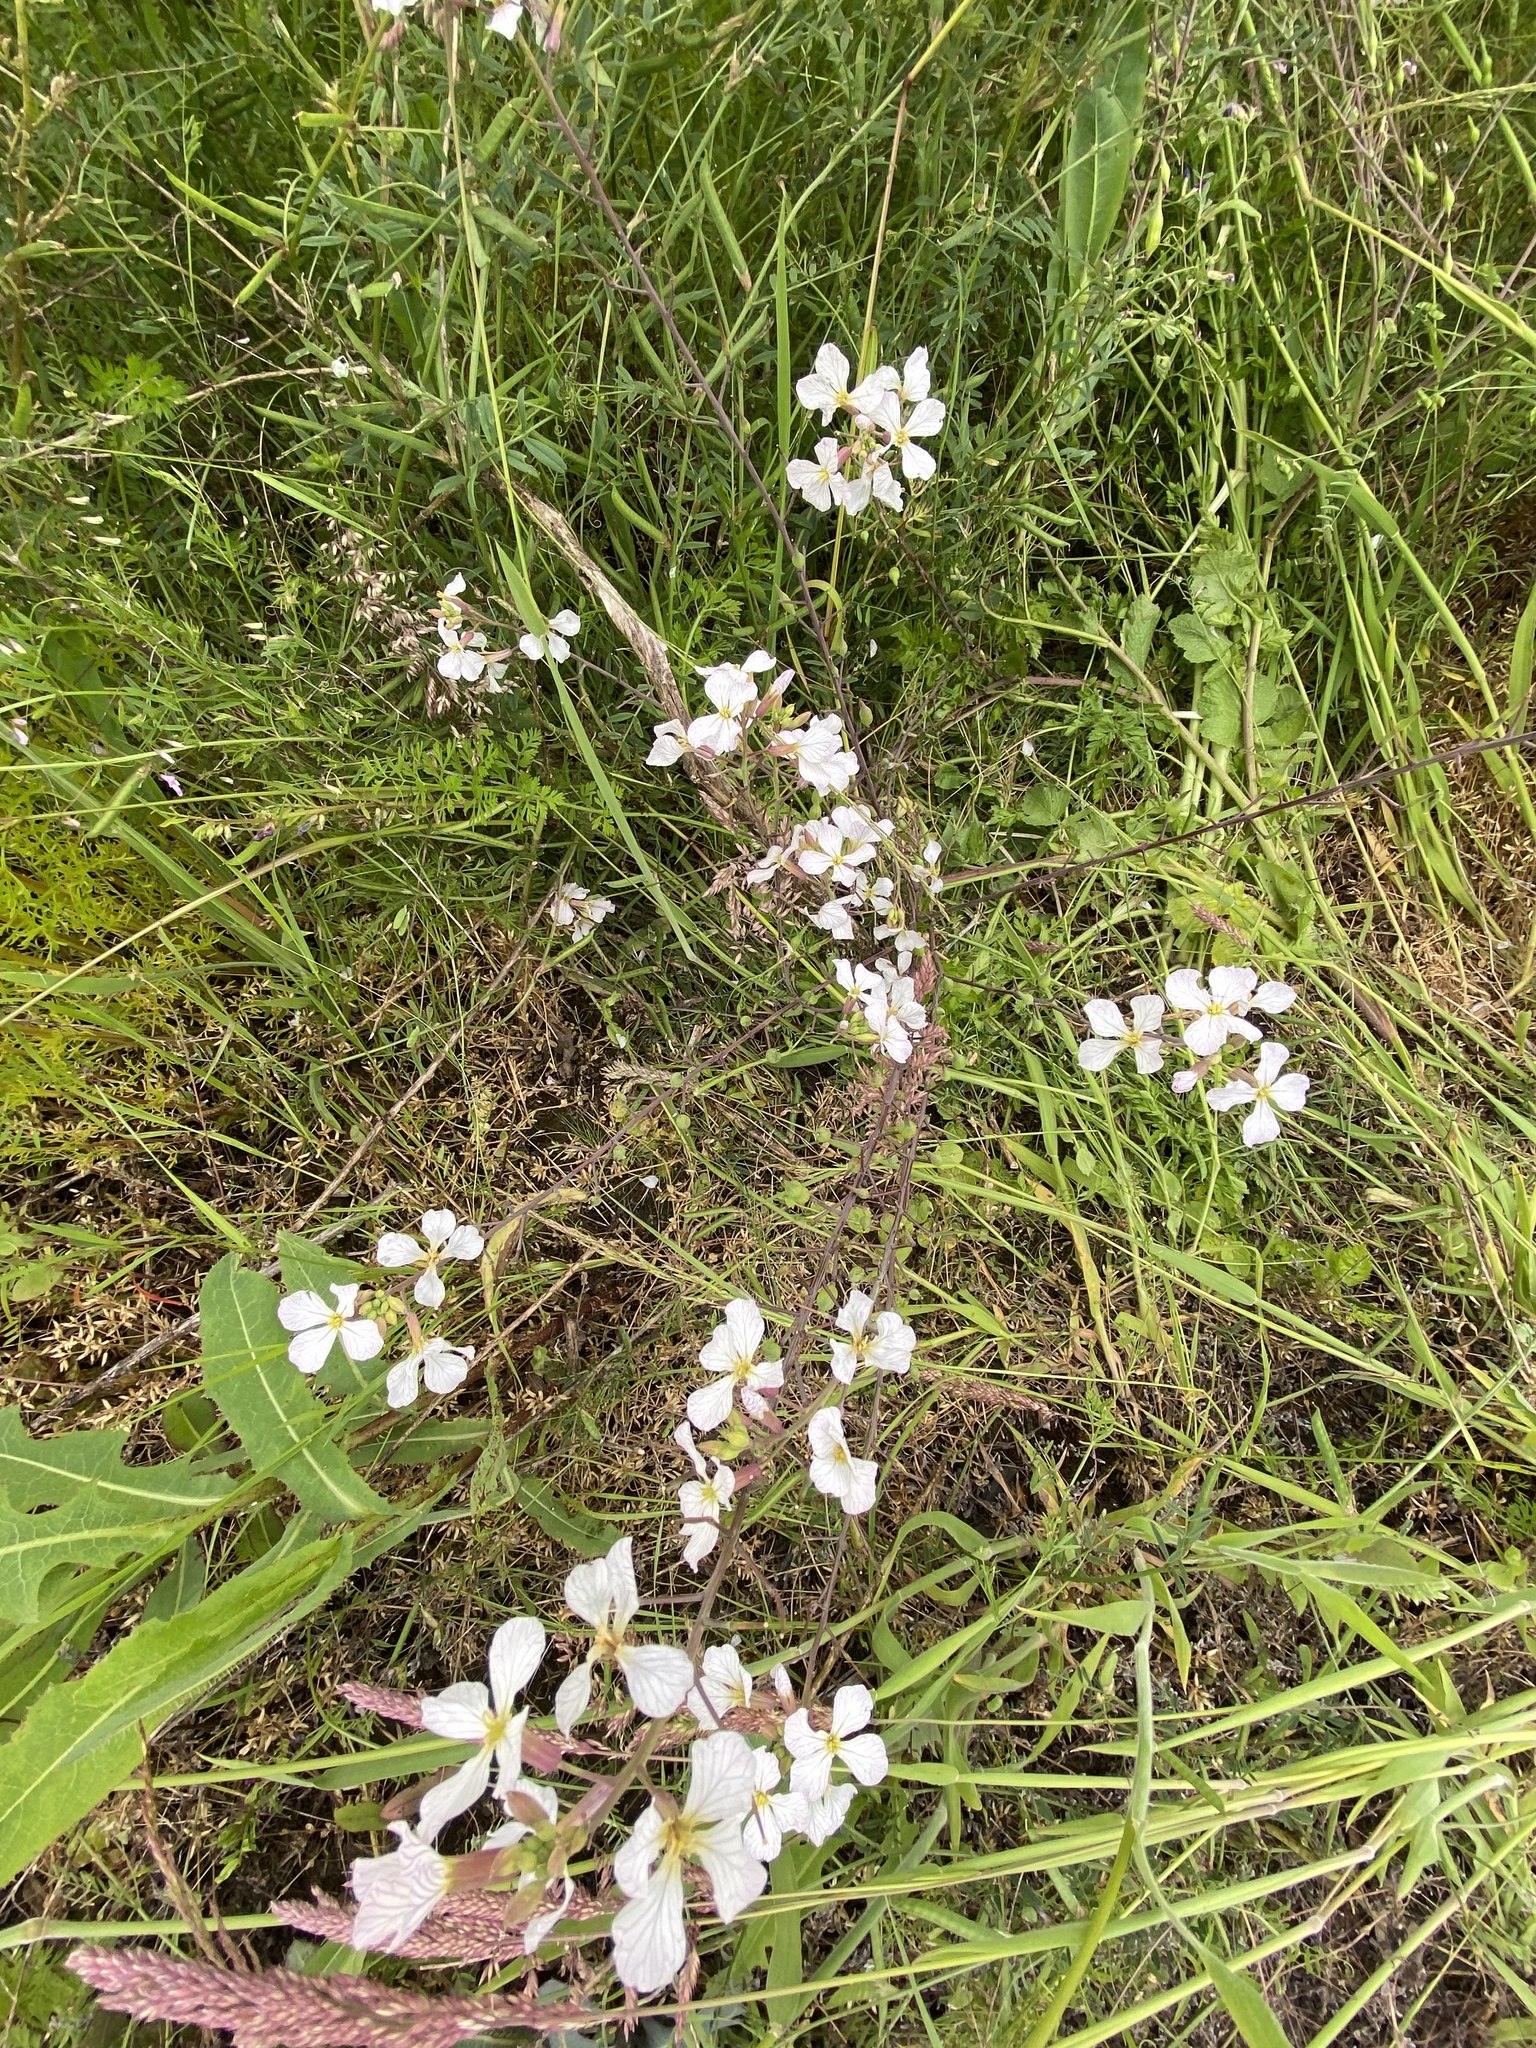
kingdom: Plantae
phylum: Tracheophyta
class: Magnoliopsida
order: Brassicales
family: Brassicaceae
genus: Raphanus
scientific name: Raphanus raphanistrum
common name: Wild radish
